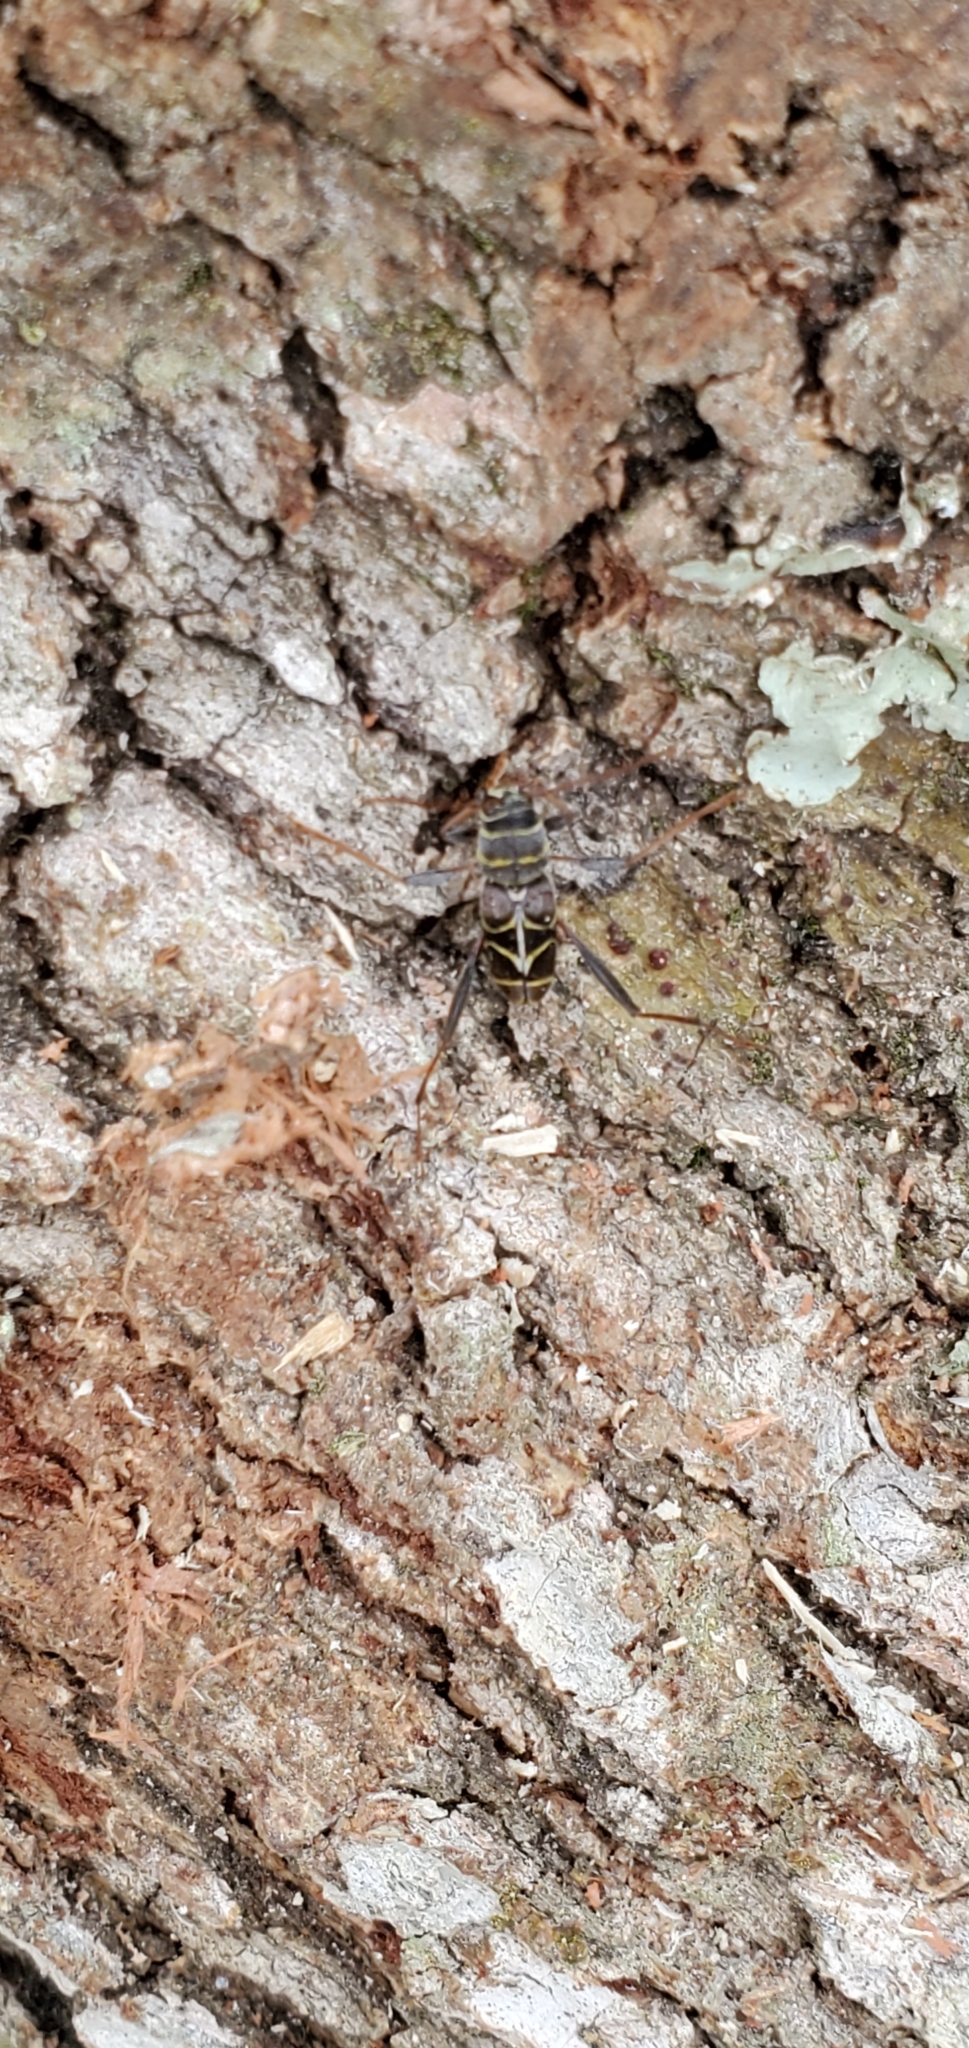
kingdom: Animalia
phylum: Arthropoda
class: Insecta
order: Coleoptera
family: Cerambycidae
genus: Neoclytus
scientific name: Neoclytus scutellaris
